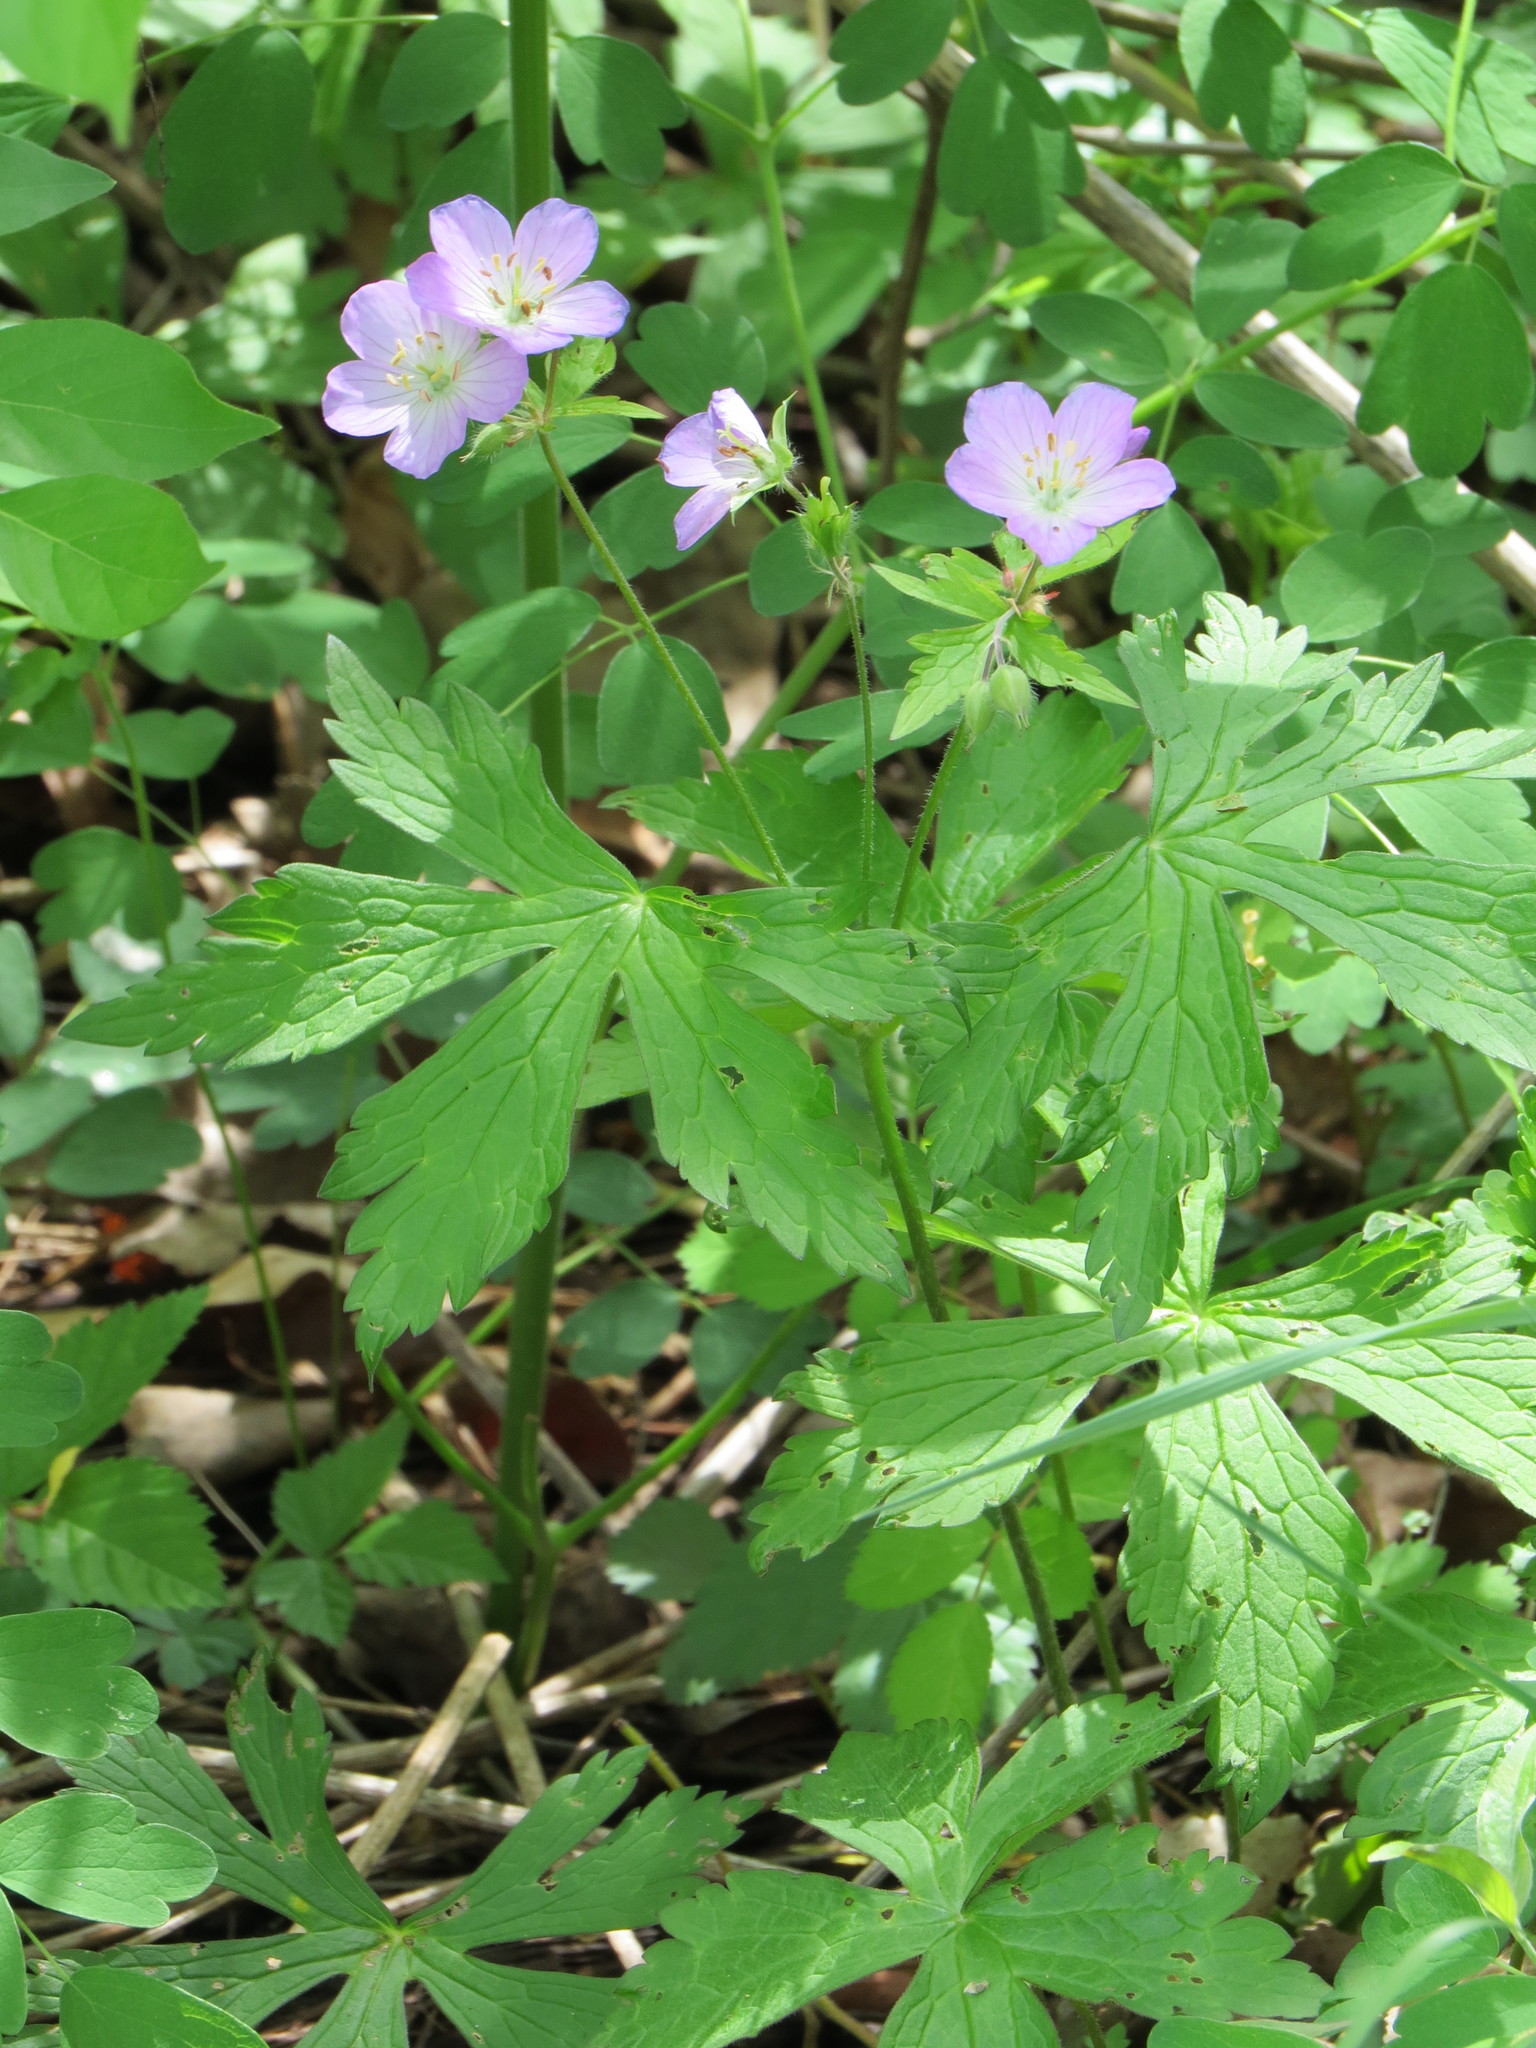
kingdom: Plantae
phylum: Tracheophyta
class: Magnoliopsida
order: Geraniales
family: Geraniaceae
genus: Geranium
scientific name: Geranium maculatum
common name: Spotted geranium
